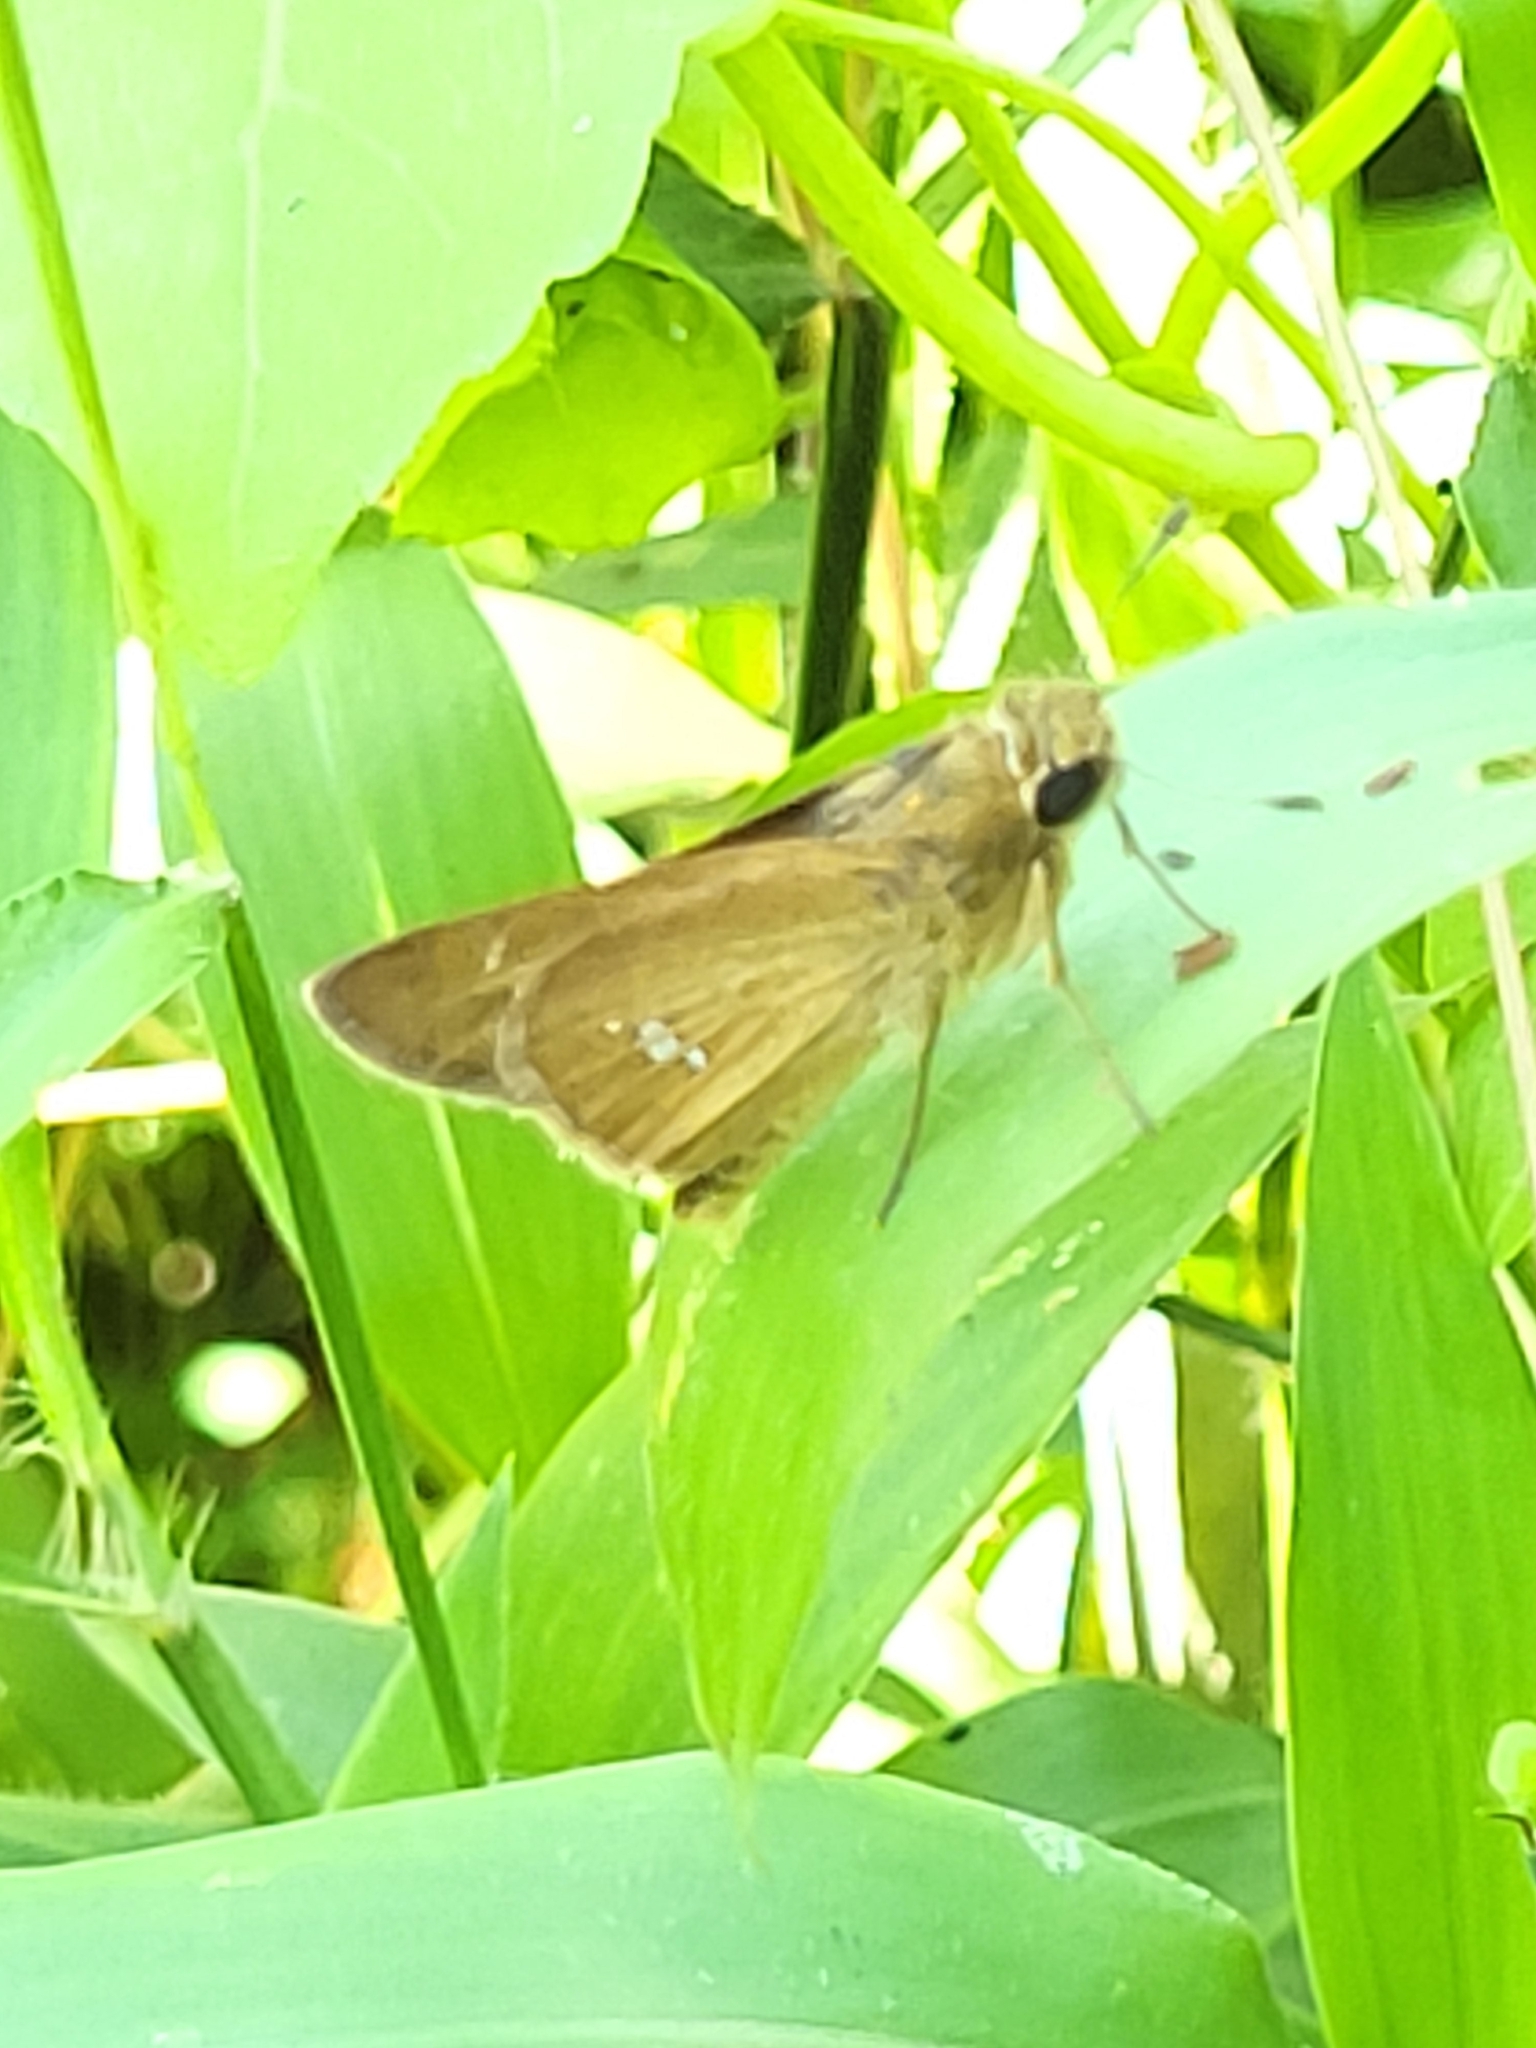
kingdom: Animalia
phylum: Arthropoda
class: Insecta
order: Lepidoptera
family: Hesperiidae
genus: Parnara
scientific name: Parnara naso
